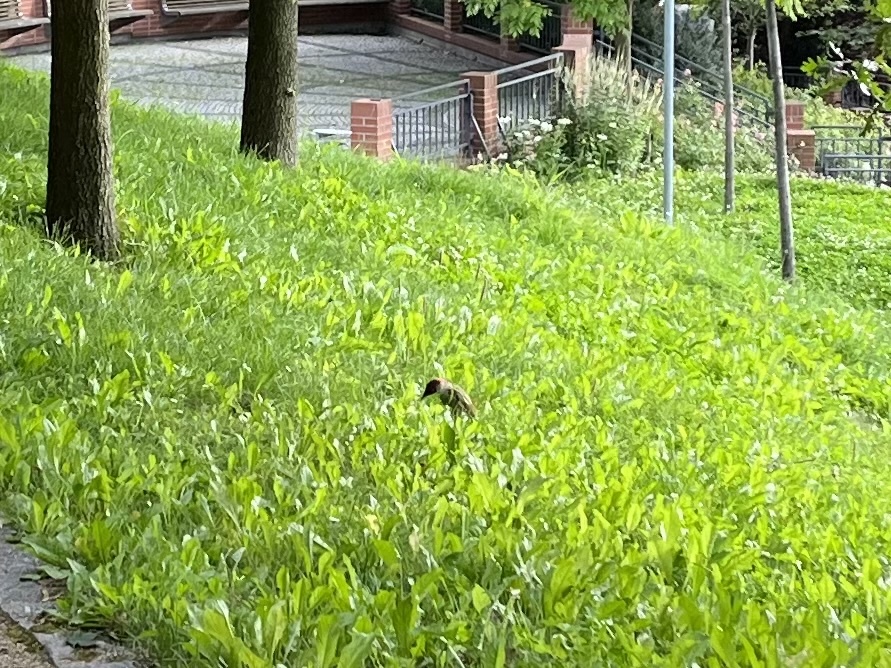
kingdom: Animalia
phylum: Chordata
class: Aves
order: Piciformes
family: Picidae
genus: Picus
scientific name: Picus viridis
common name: European green woodpecker
